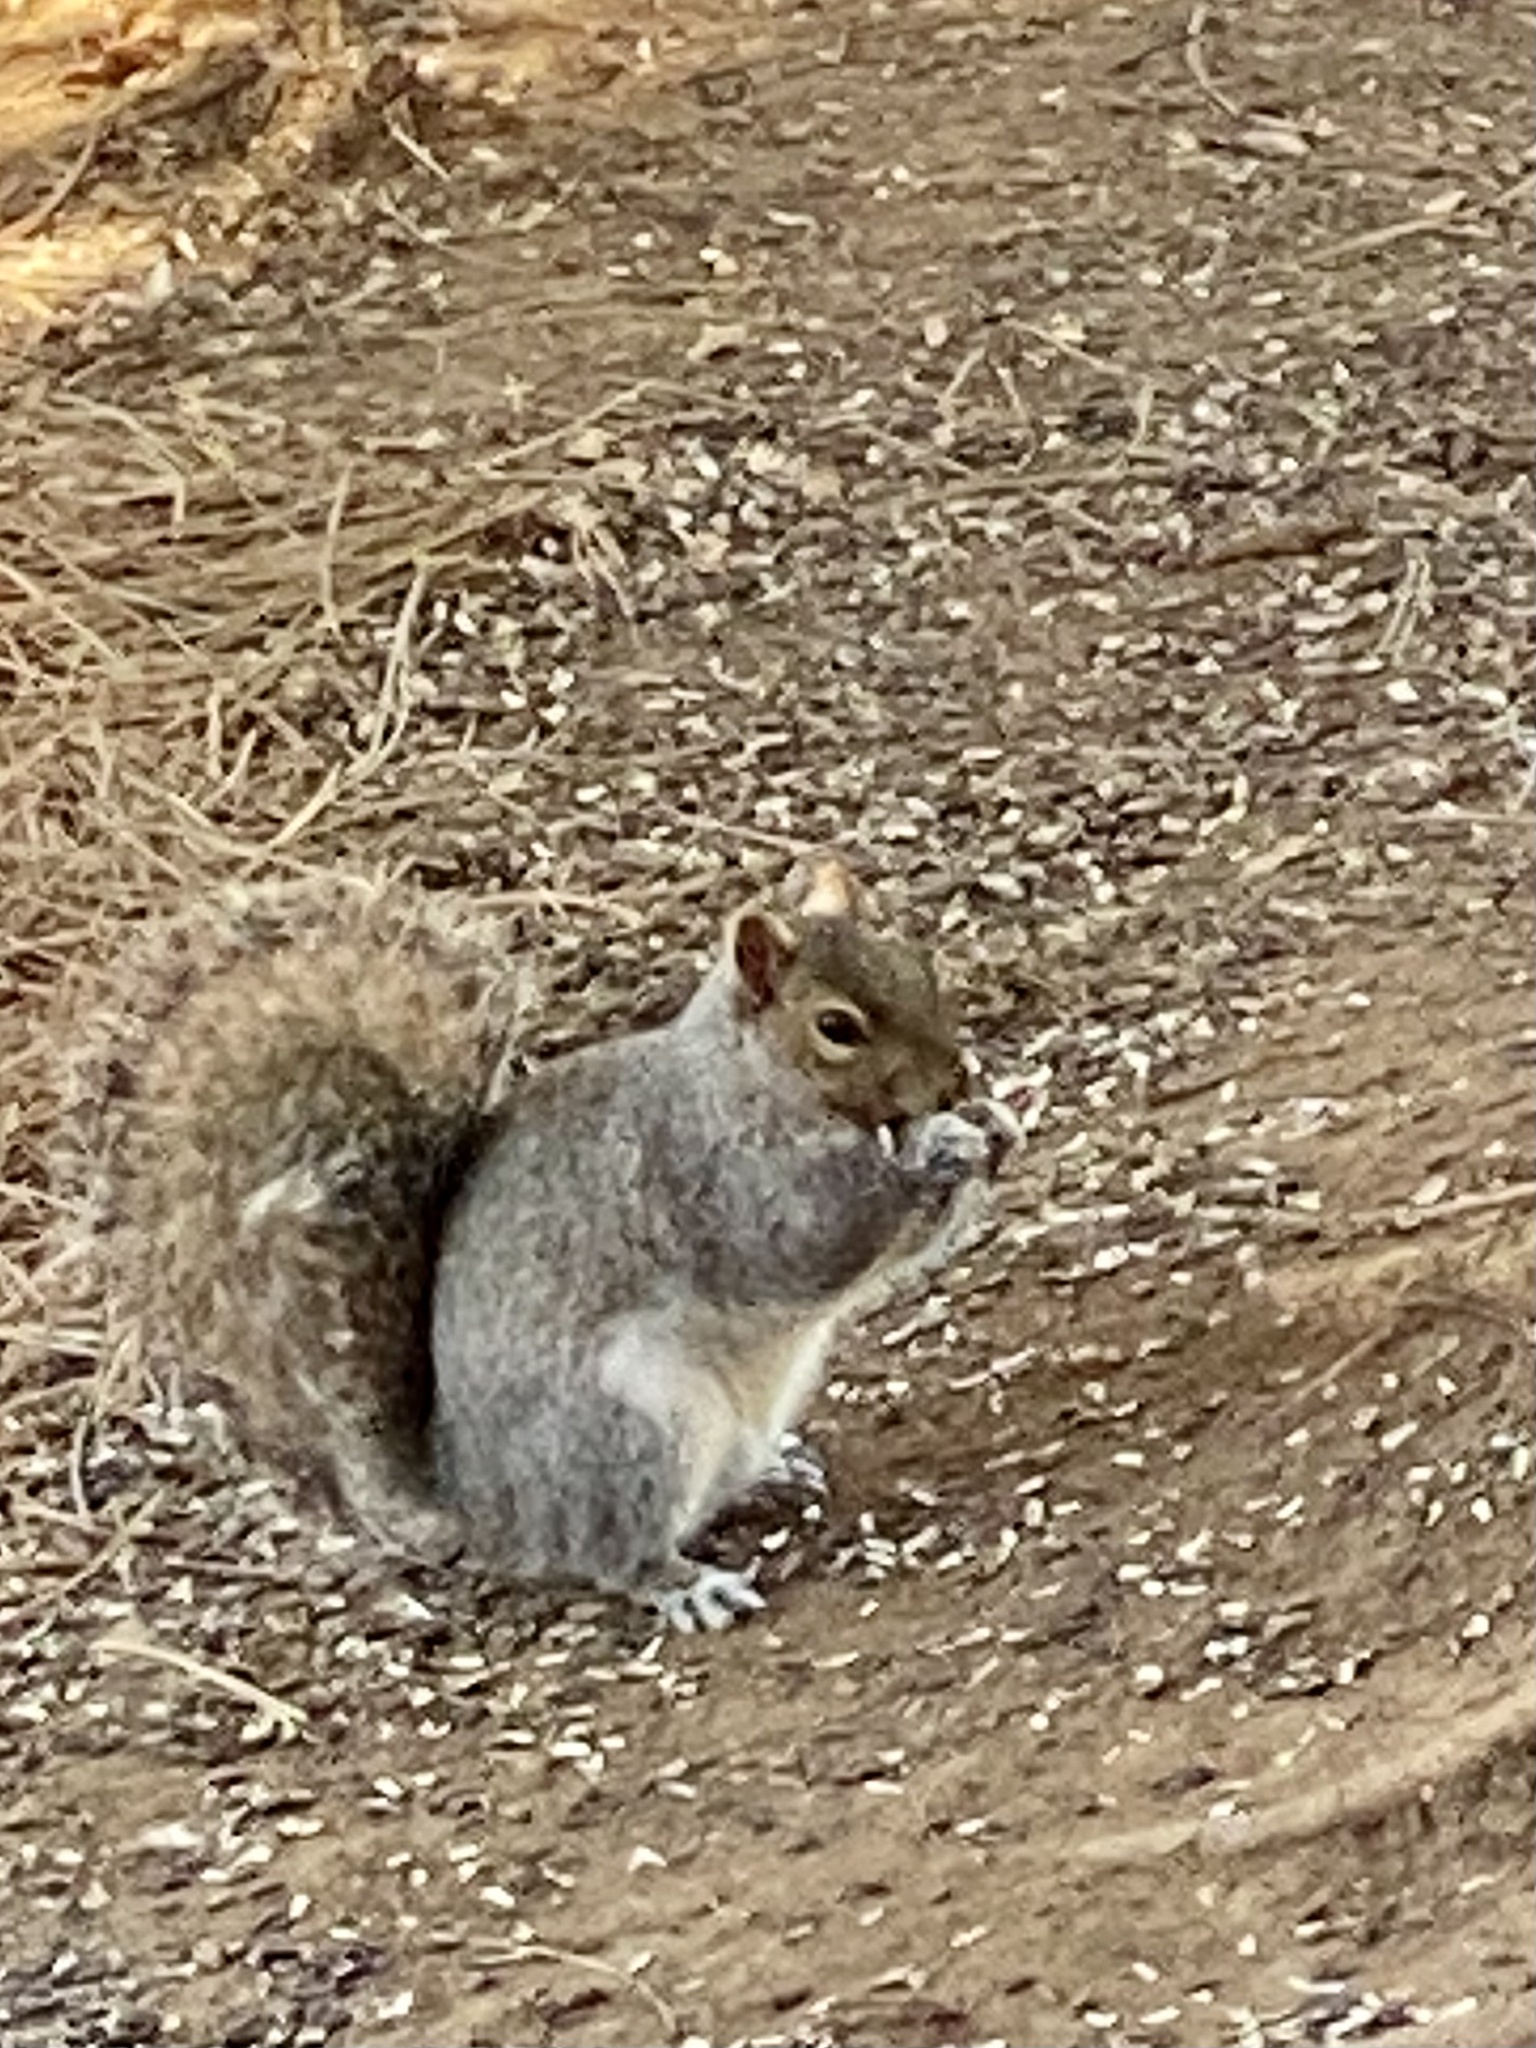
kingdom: Animalia
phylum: Chordata
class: Mammalia
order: Rodentia
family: Sciuridae
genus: Sciurus
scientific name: Sciurus carolinensis
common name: Eastern gray squirrel
